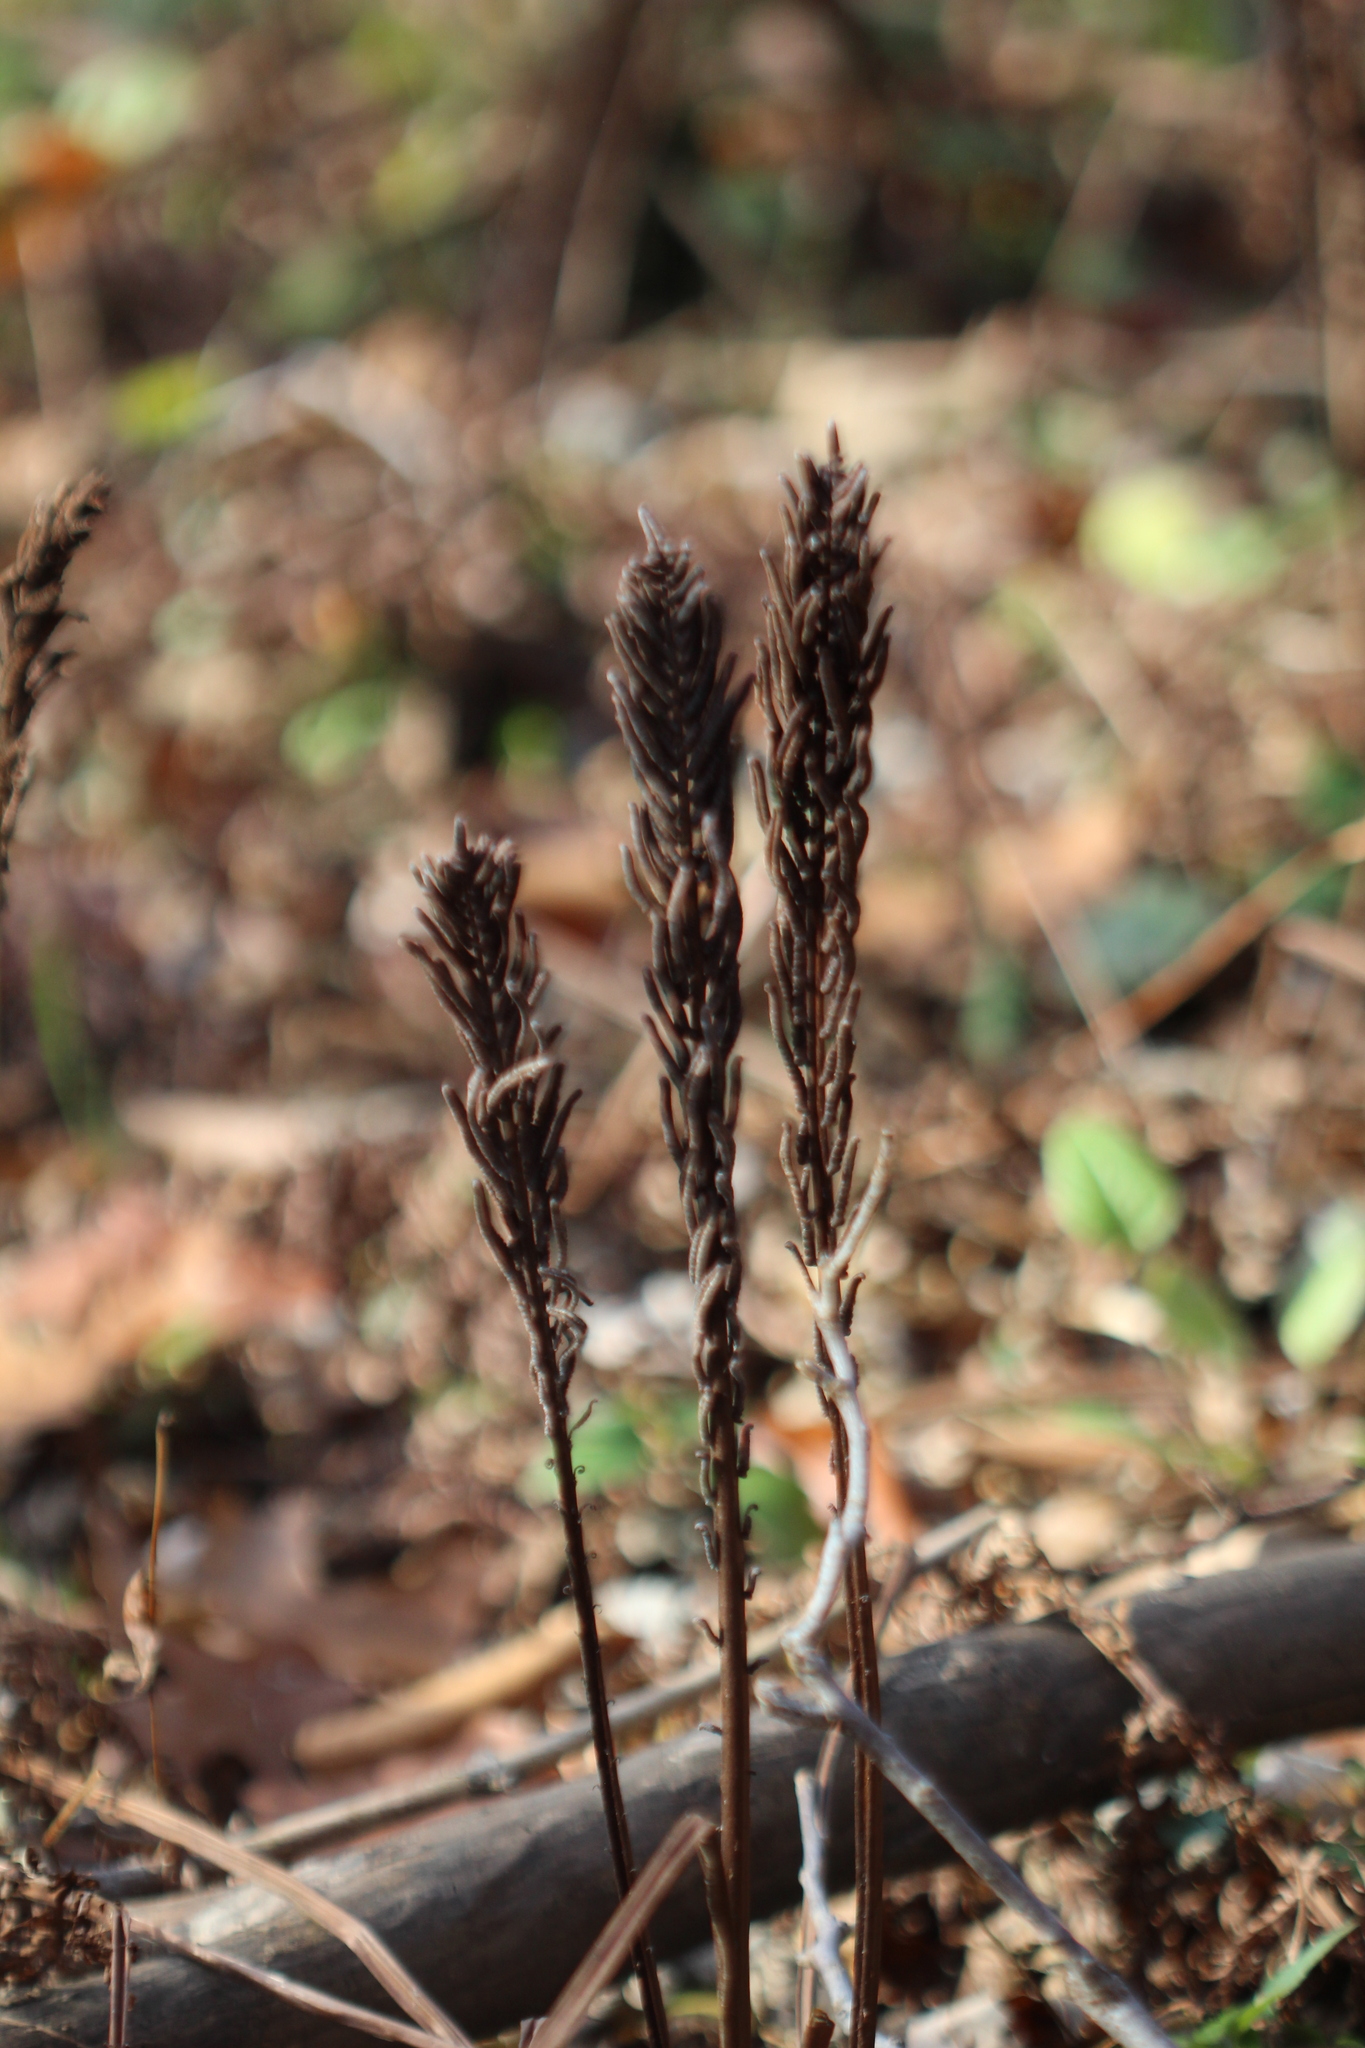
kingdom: Plantae
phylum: Tracheophyta
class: Polypodiopsida
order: Polypodiales
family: Onocleaceae
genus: Matteuccia
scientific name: Matteuccia struthiopteris
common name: Ostrich fern
